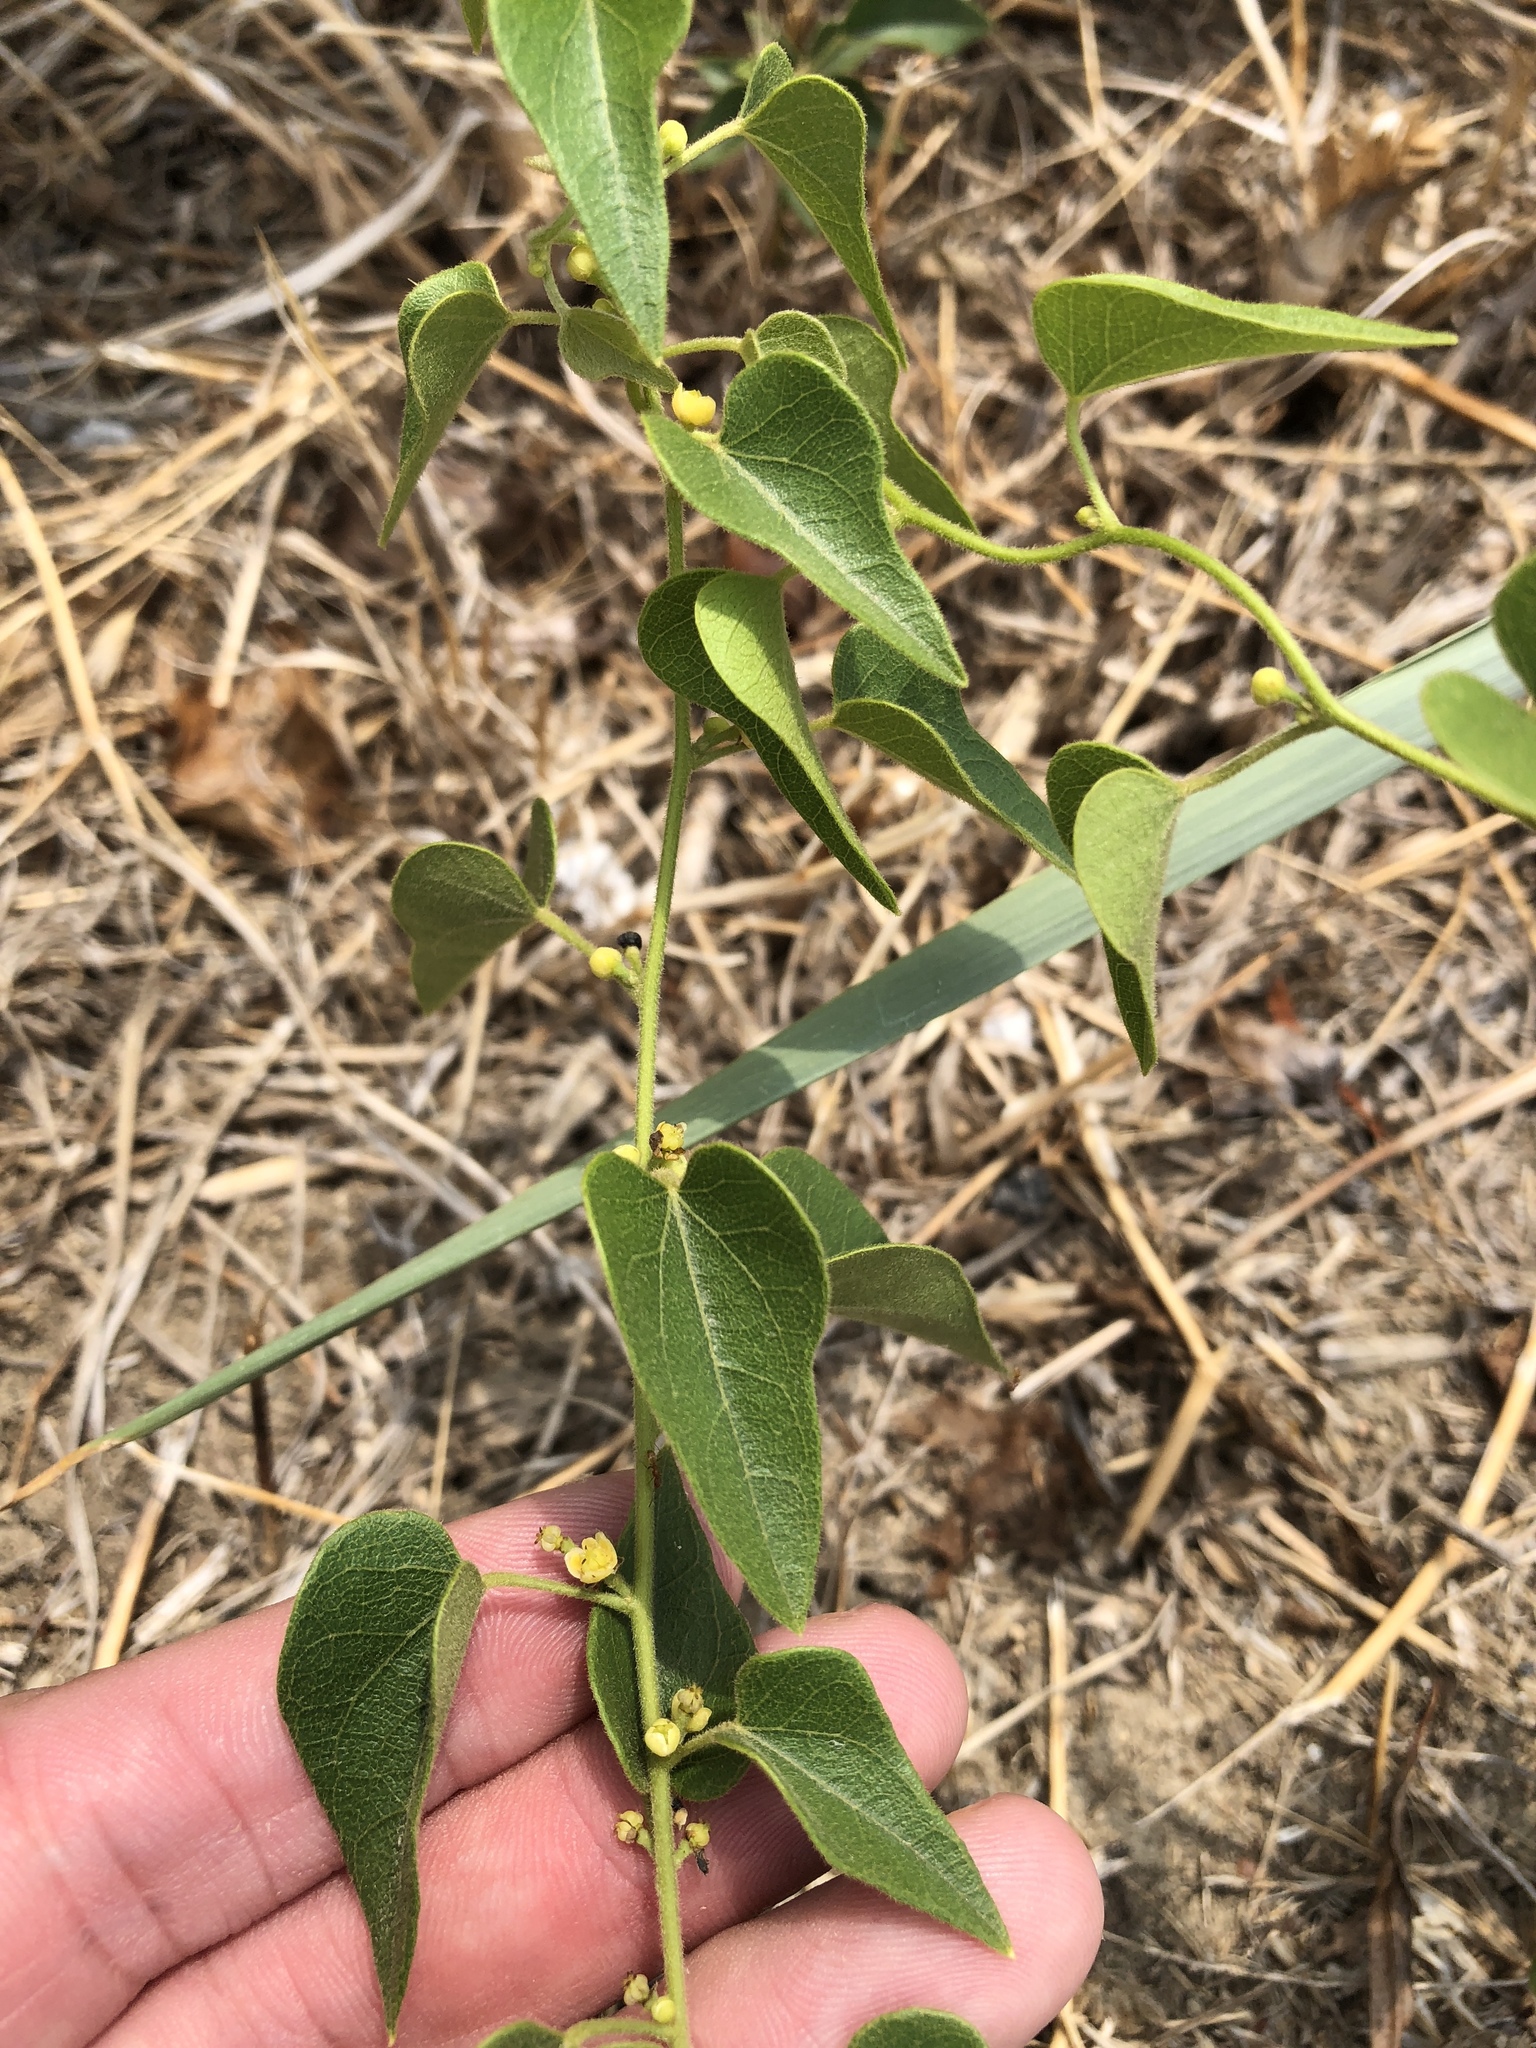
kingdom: Plantae
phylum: Tracheophyta
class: Magnoliopsida
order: Ranunculales
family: Menispermaceae
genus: Cocculus
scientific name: Cocculus carolinus
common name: Carolina moonseed
